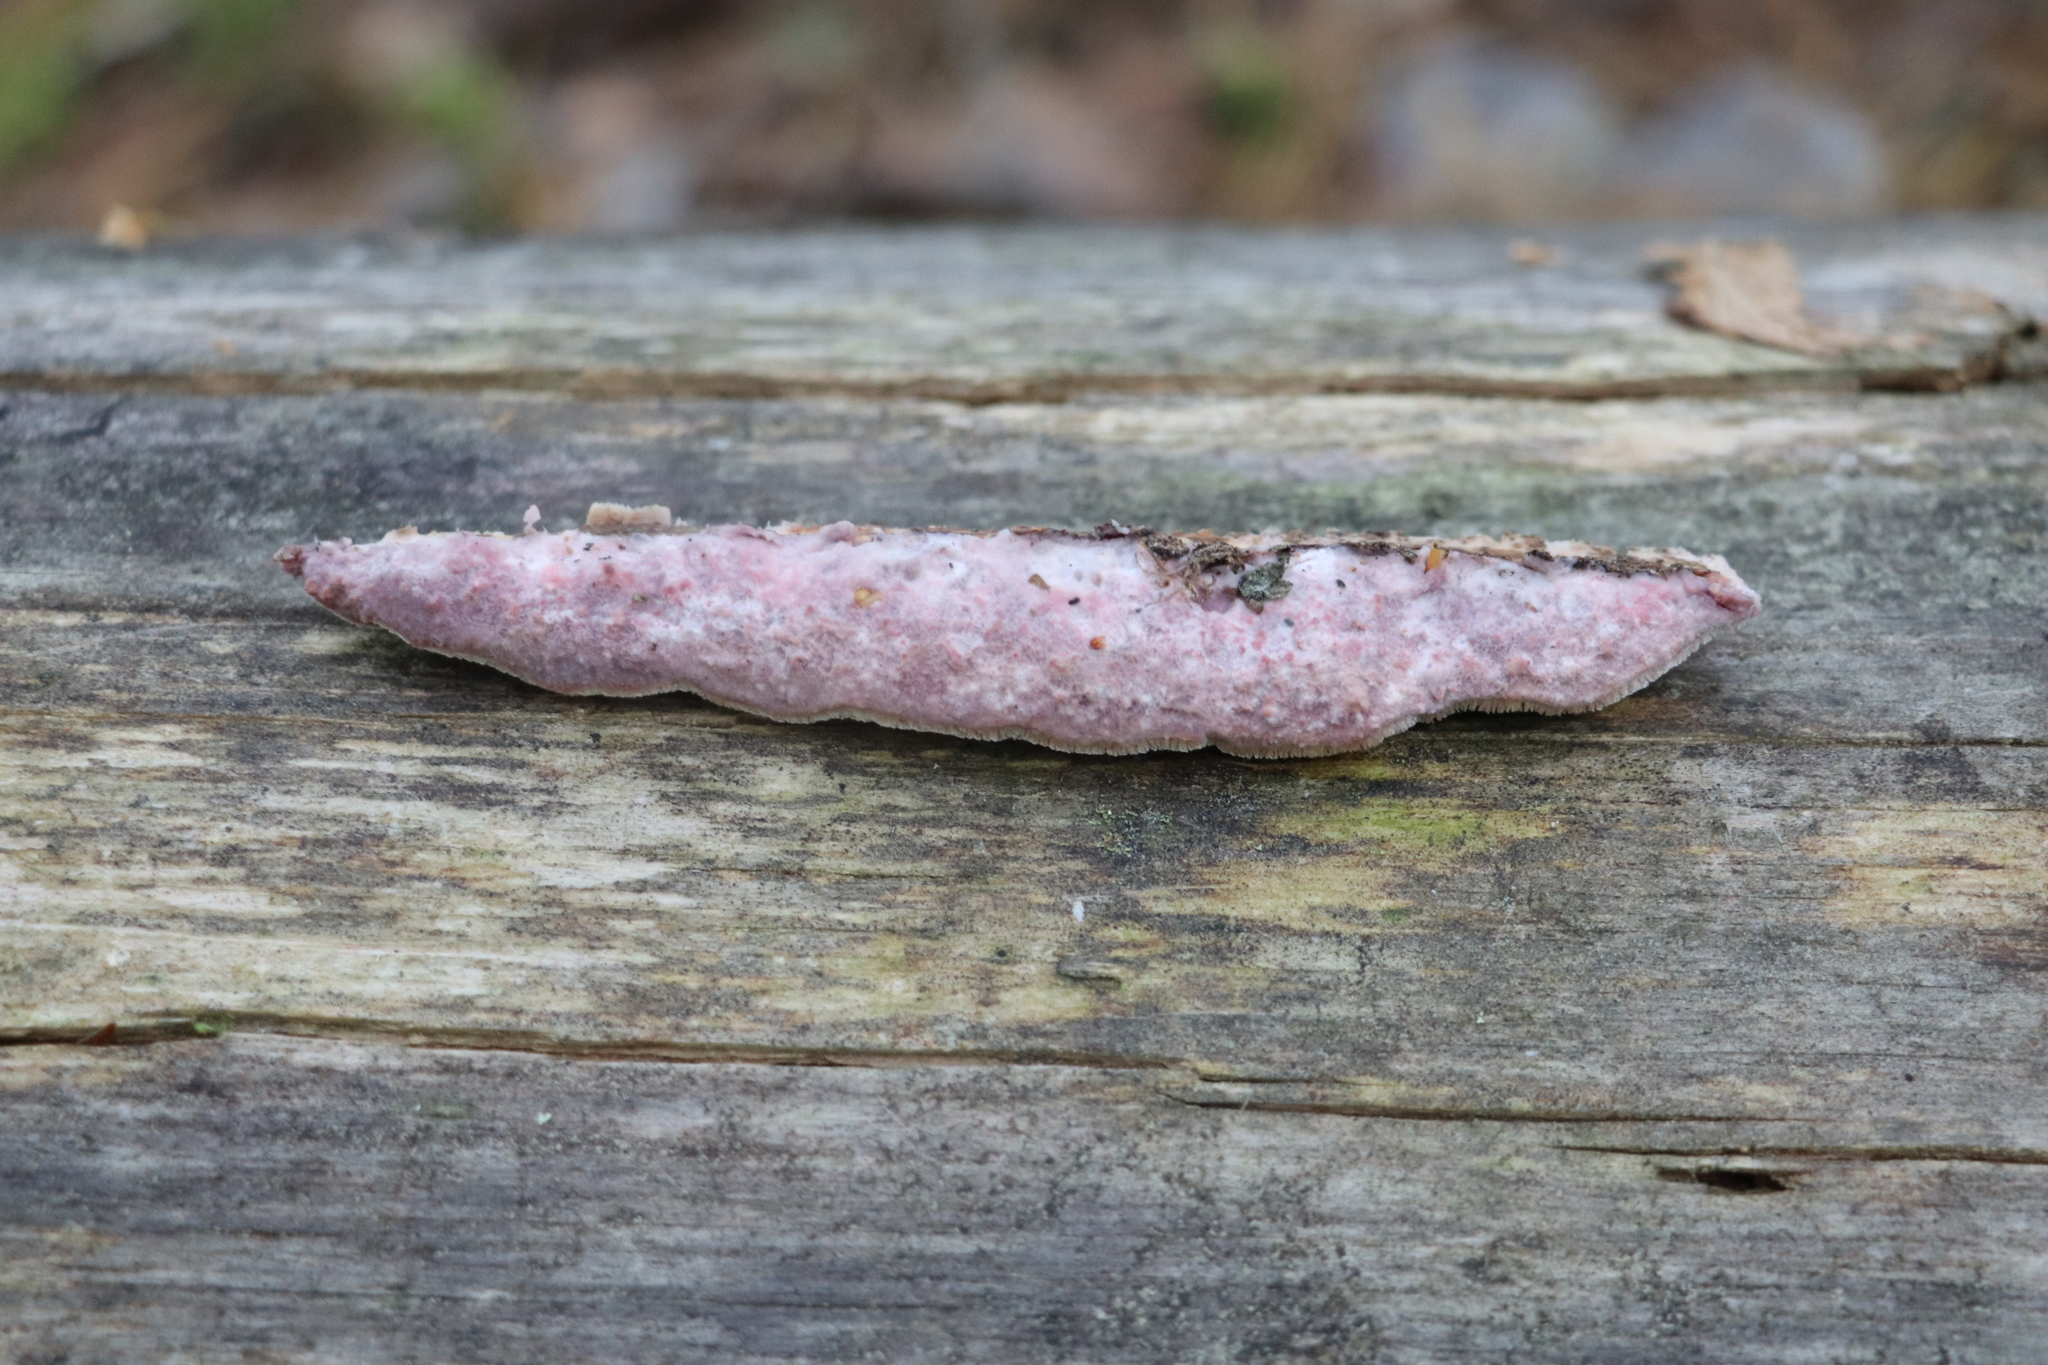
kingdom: Fungi
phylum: Basidiomycota
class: Agaricomycetes
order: Polyporales
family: Irpicaceae
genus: Leptoporus
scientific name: Leptoporus mollis
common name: Soft bracket
